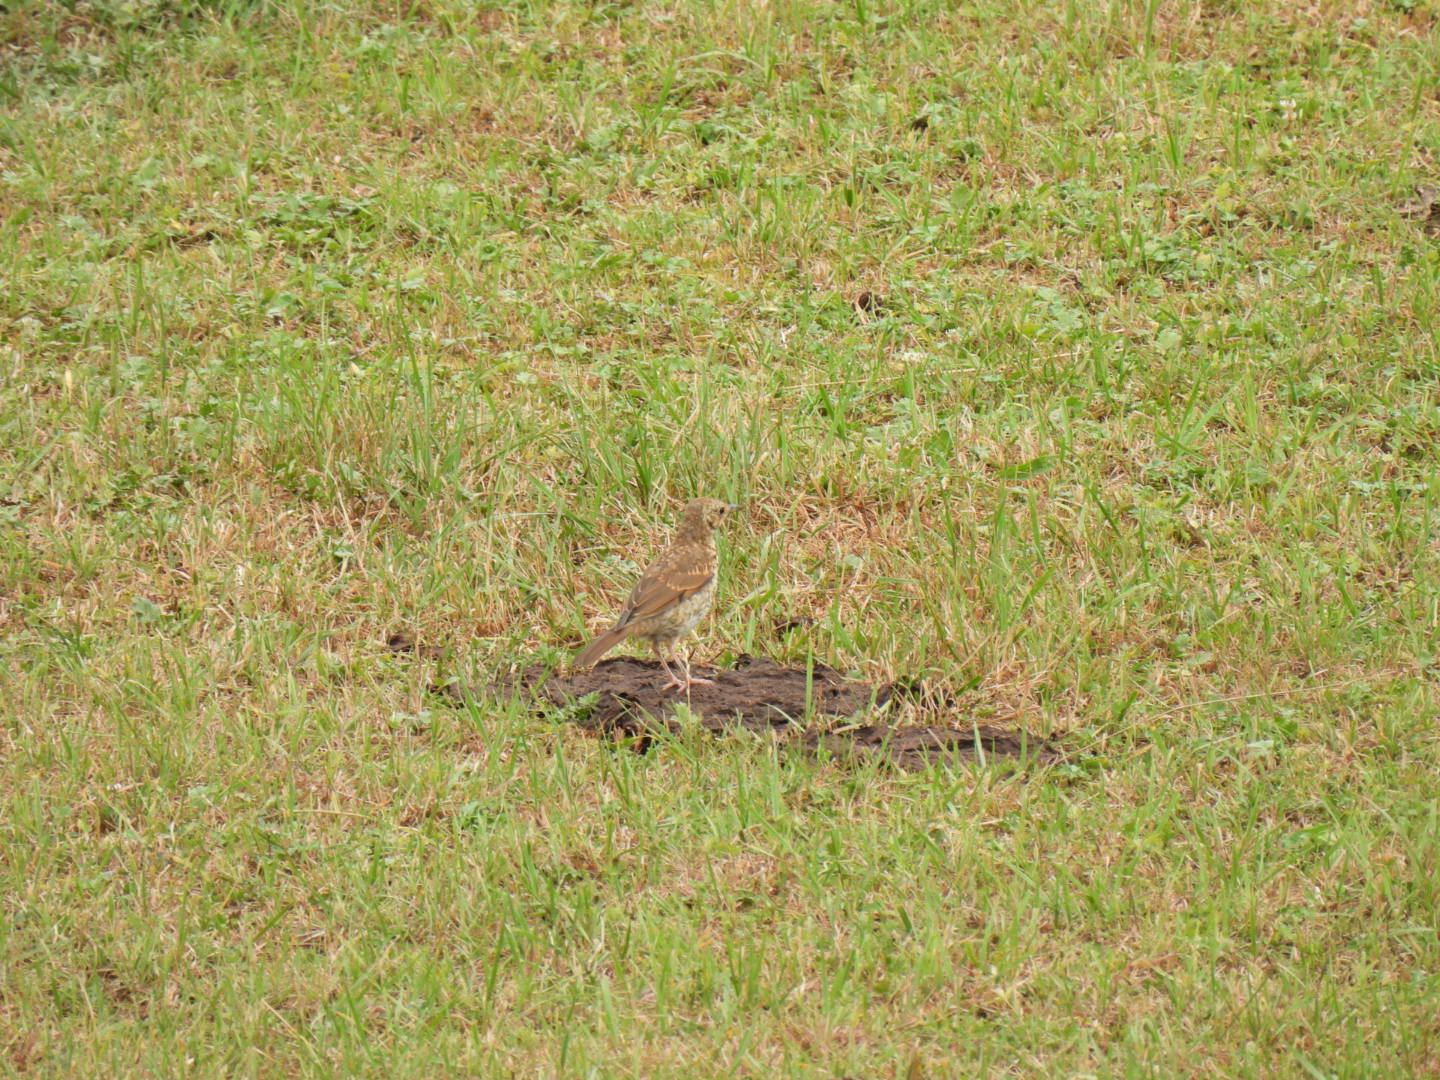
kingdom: Animalia
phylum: Chordata
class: Aves
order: Passeriformes
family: Turdidae
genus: Turdus
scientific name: Turdus philomelos
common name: Song thrush
